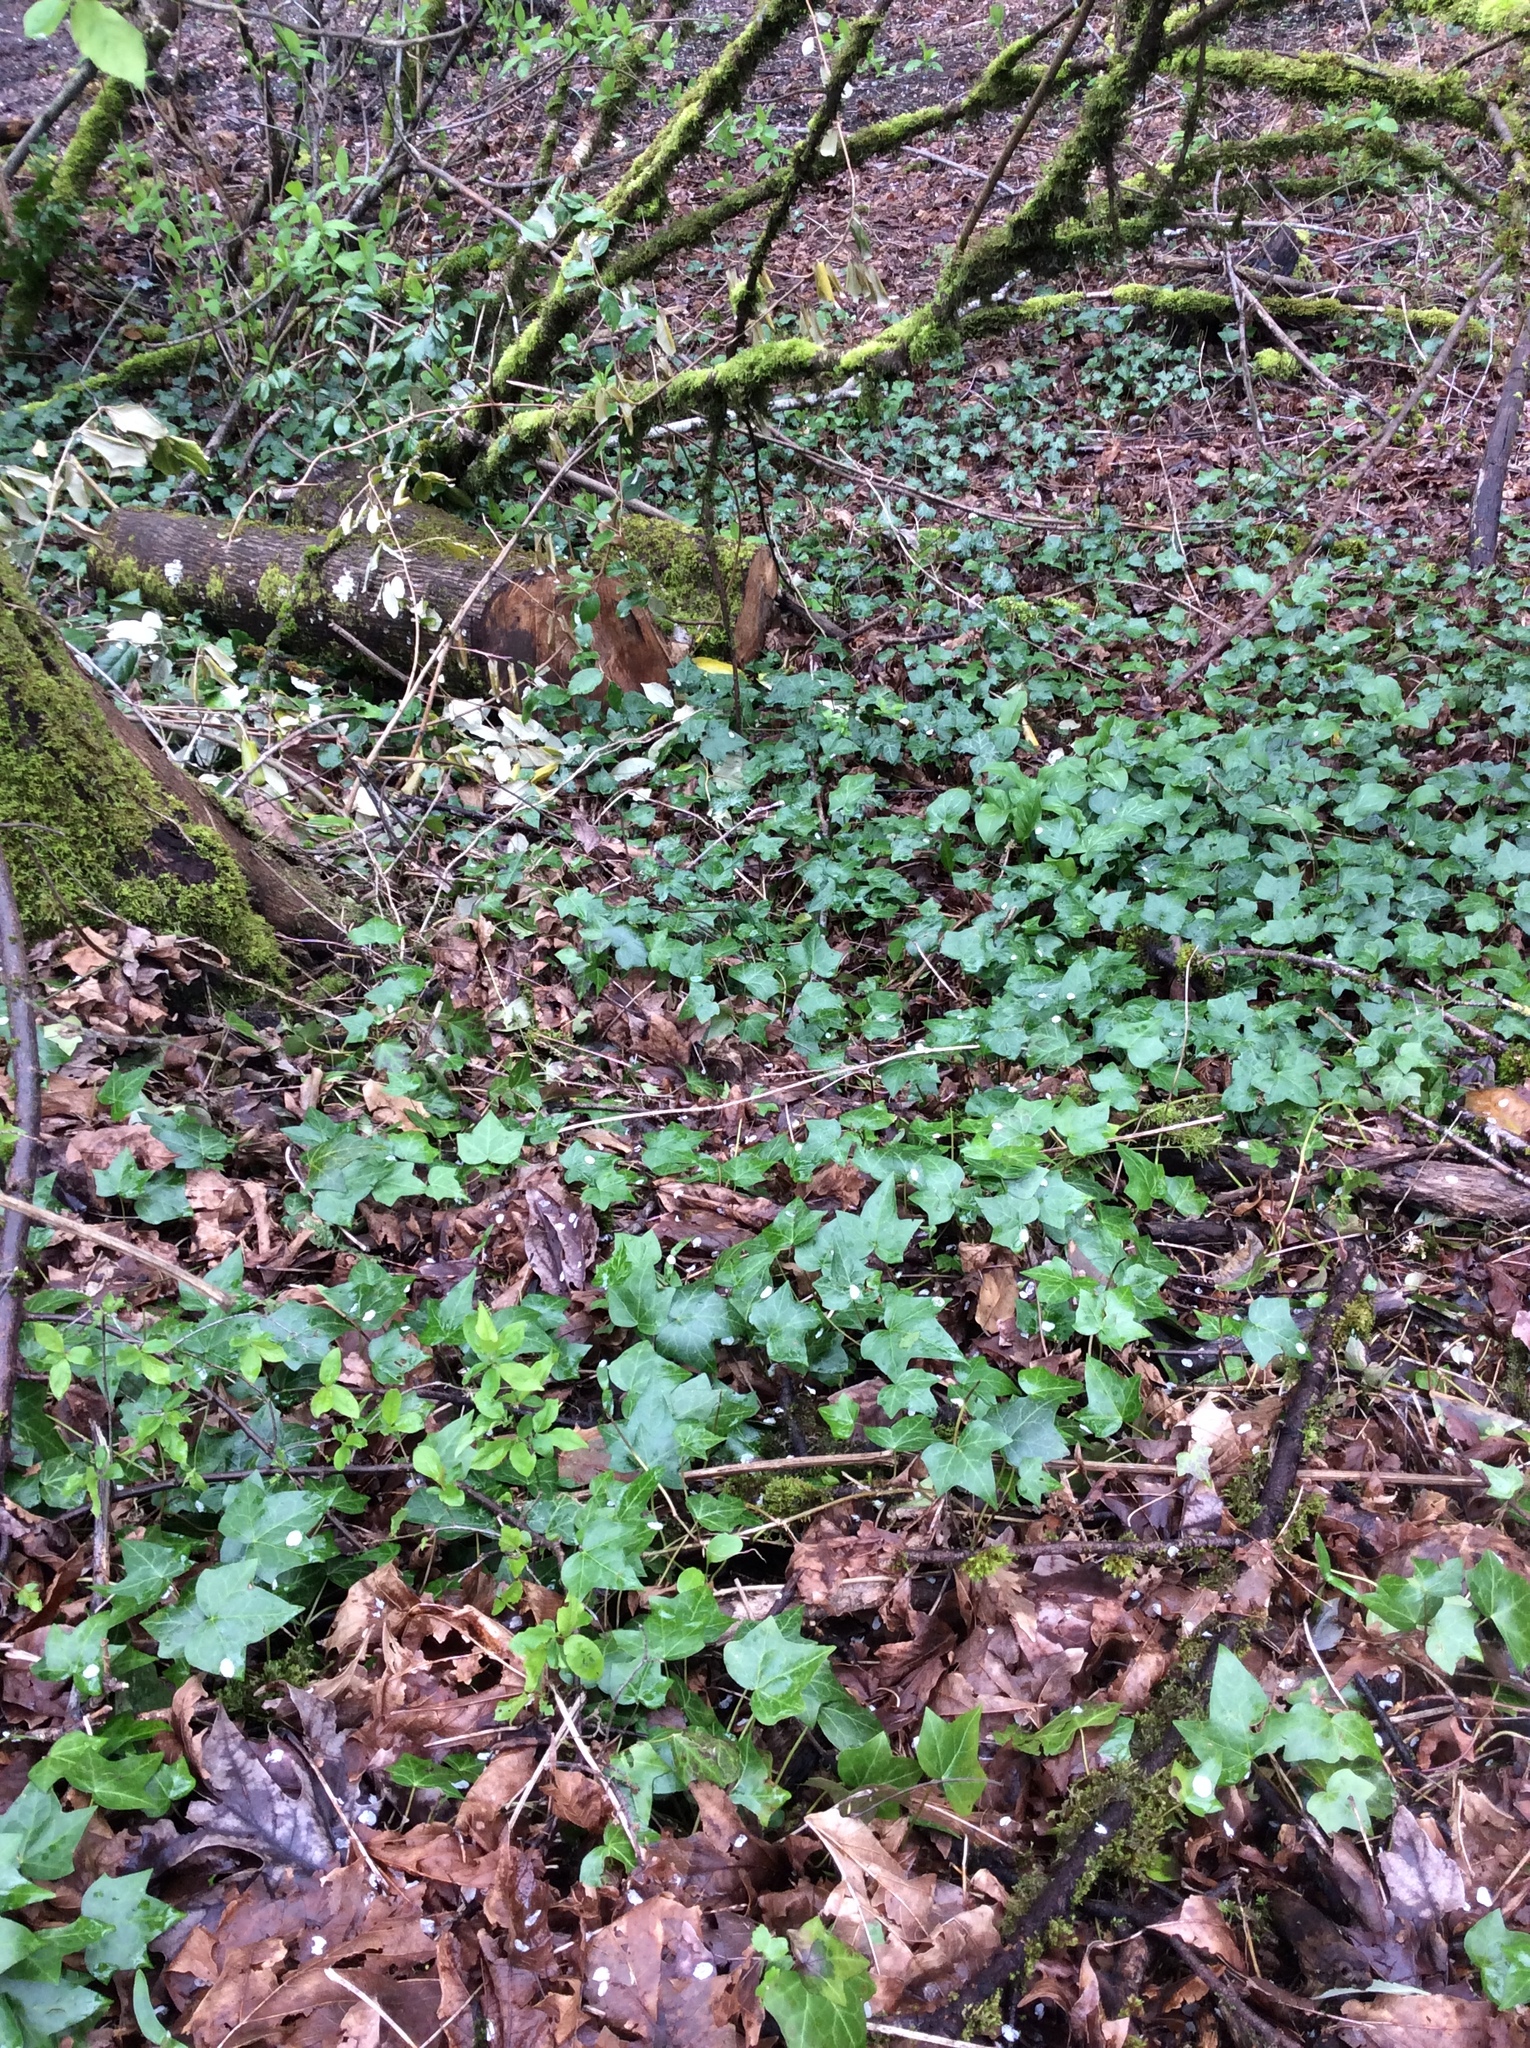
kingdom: Plantae
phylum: Tracheophyta
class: Magnoliopsida
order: Apiales
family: Araliaceae
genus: Hedera
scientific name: Hedera helix
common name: Ivy
